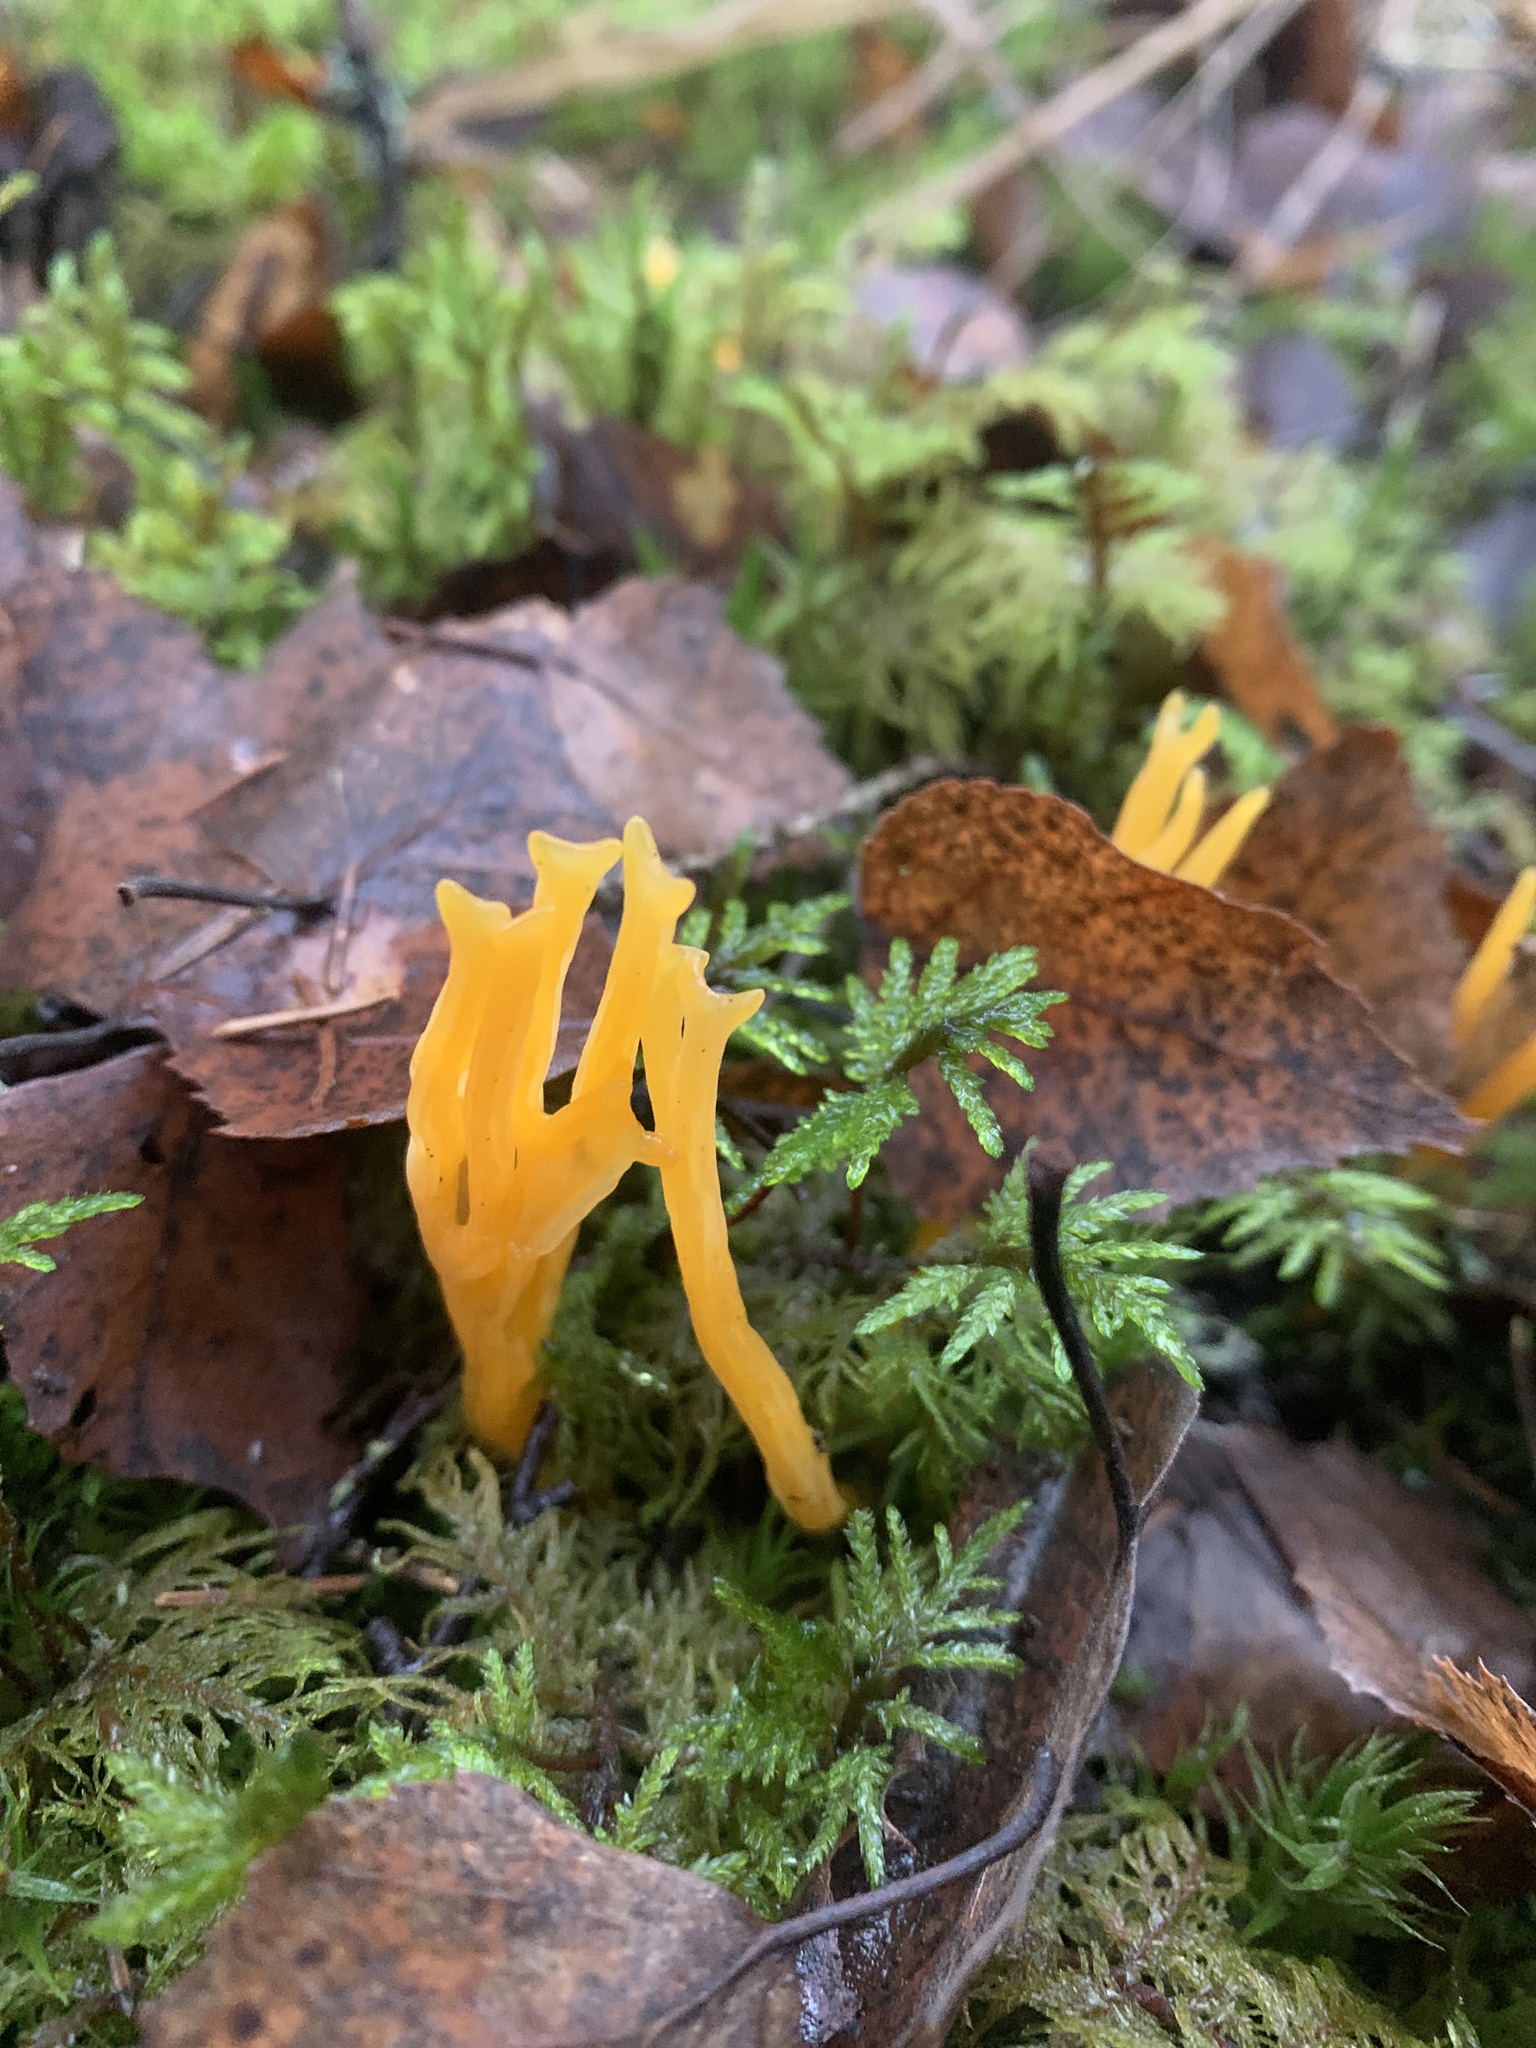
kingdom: Fungi
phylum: Basidiomycota
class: Dacrymycetes
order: Dacrymycetales
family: Dacrymycetaceae
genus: Calocera
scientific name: Calocera viscosa
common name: Yellow stagshorn
